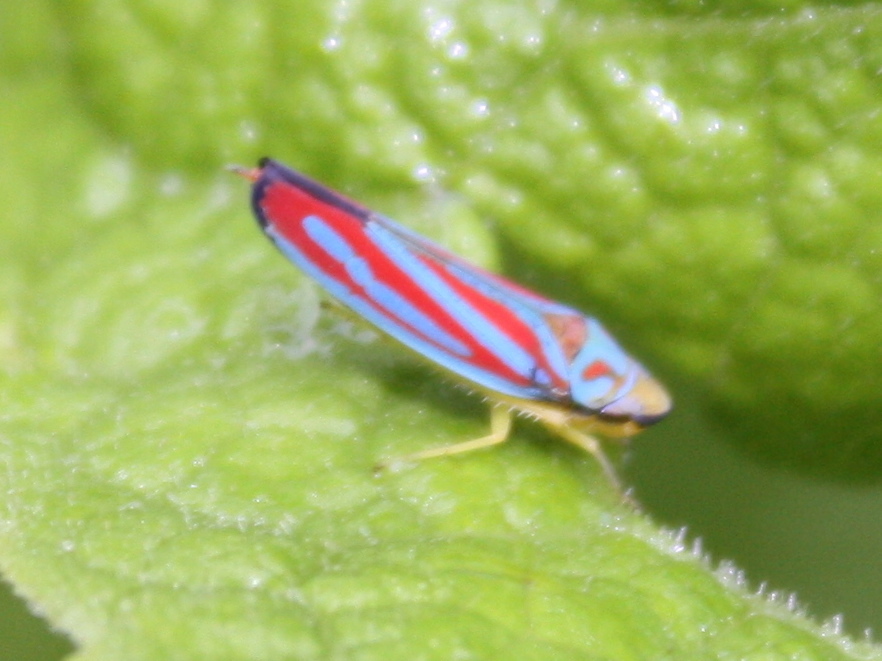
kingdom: Animalia
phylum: Arthropoda
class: Insecta
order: Hemiptera
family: Cicadellidae
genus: Graphocephala
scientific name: Graphocephala coccinea
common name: Candy-striped leafhopper
